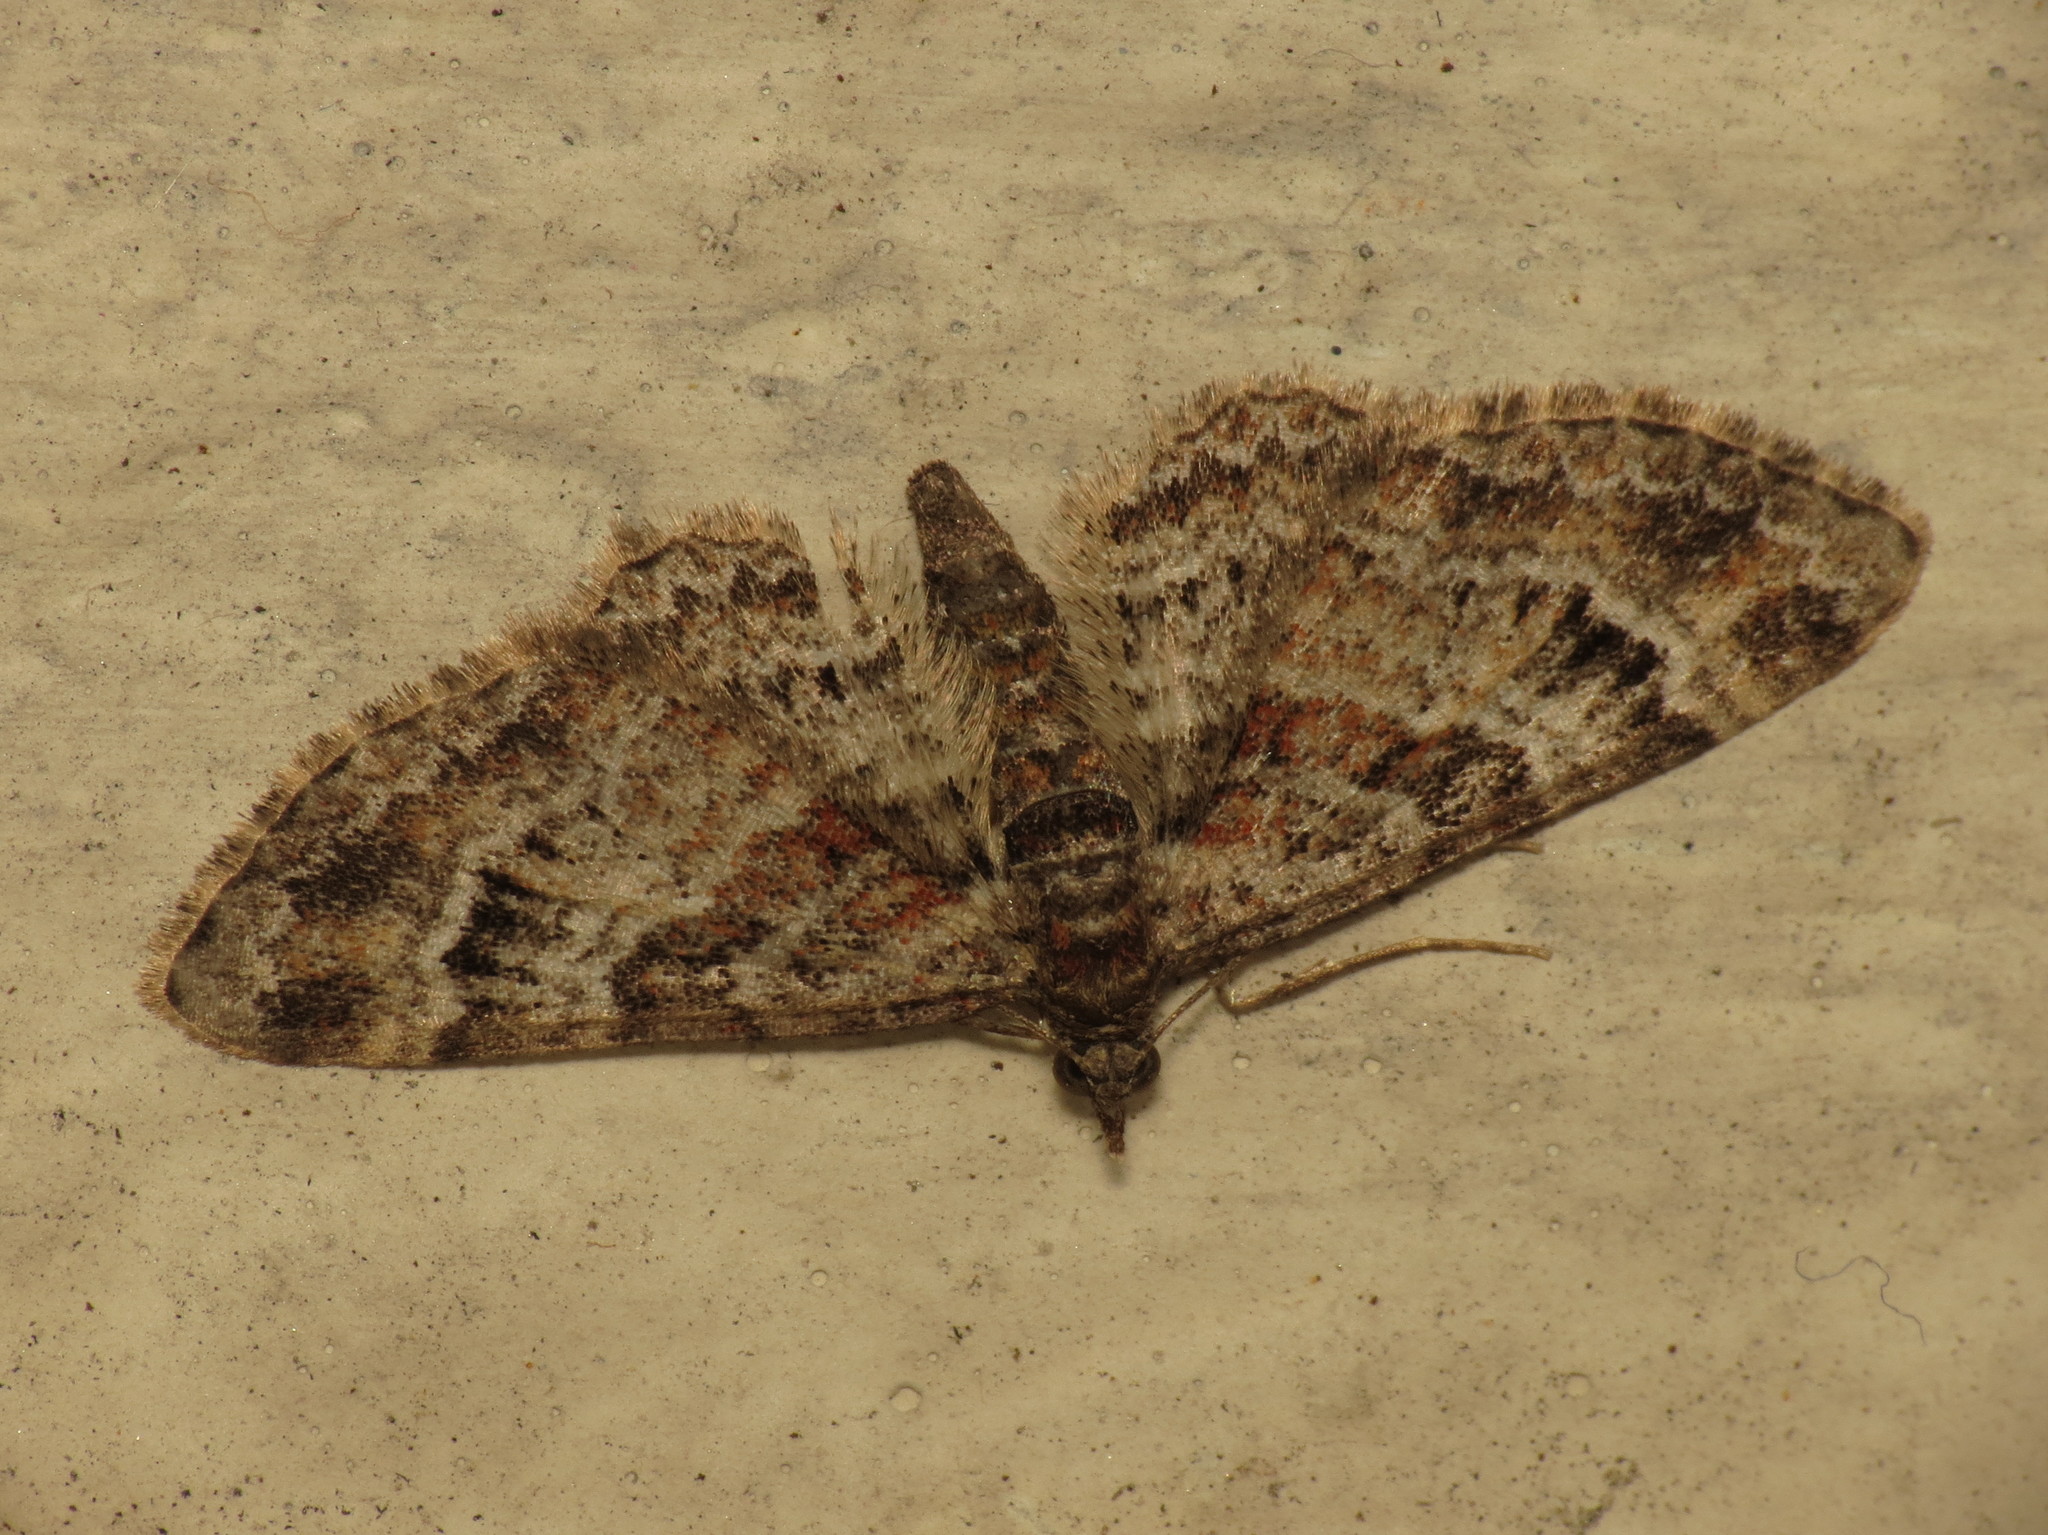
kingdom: Animalia
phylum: Arthropoda
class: Insecta
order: Lepidoptera
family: Geometridae
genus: Gymnoscelis
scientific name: Gymnoscelis rufifasciata
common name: Double-striped pug
